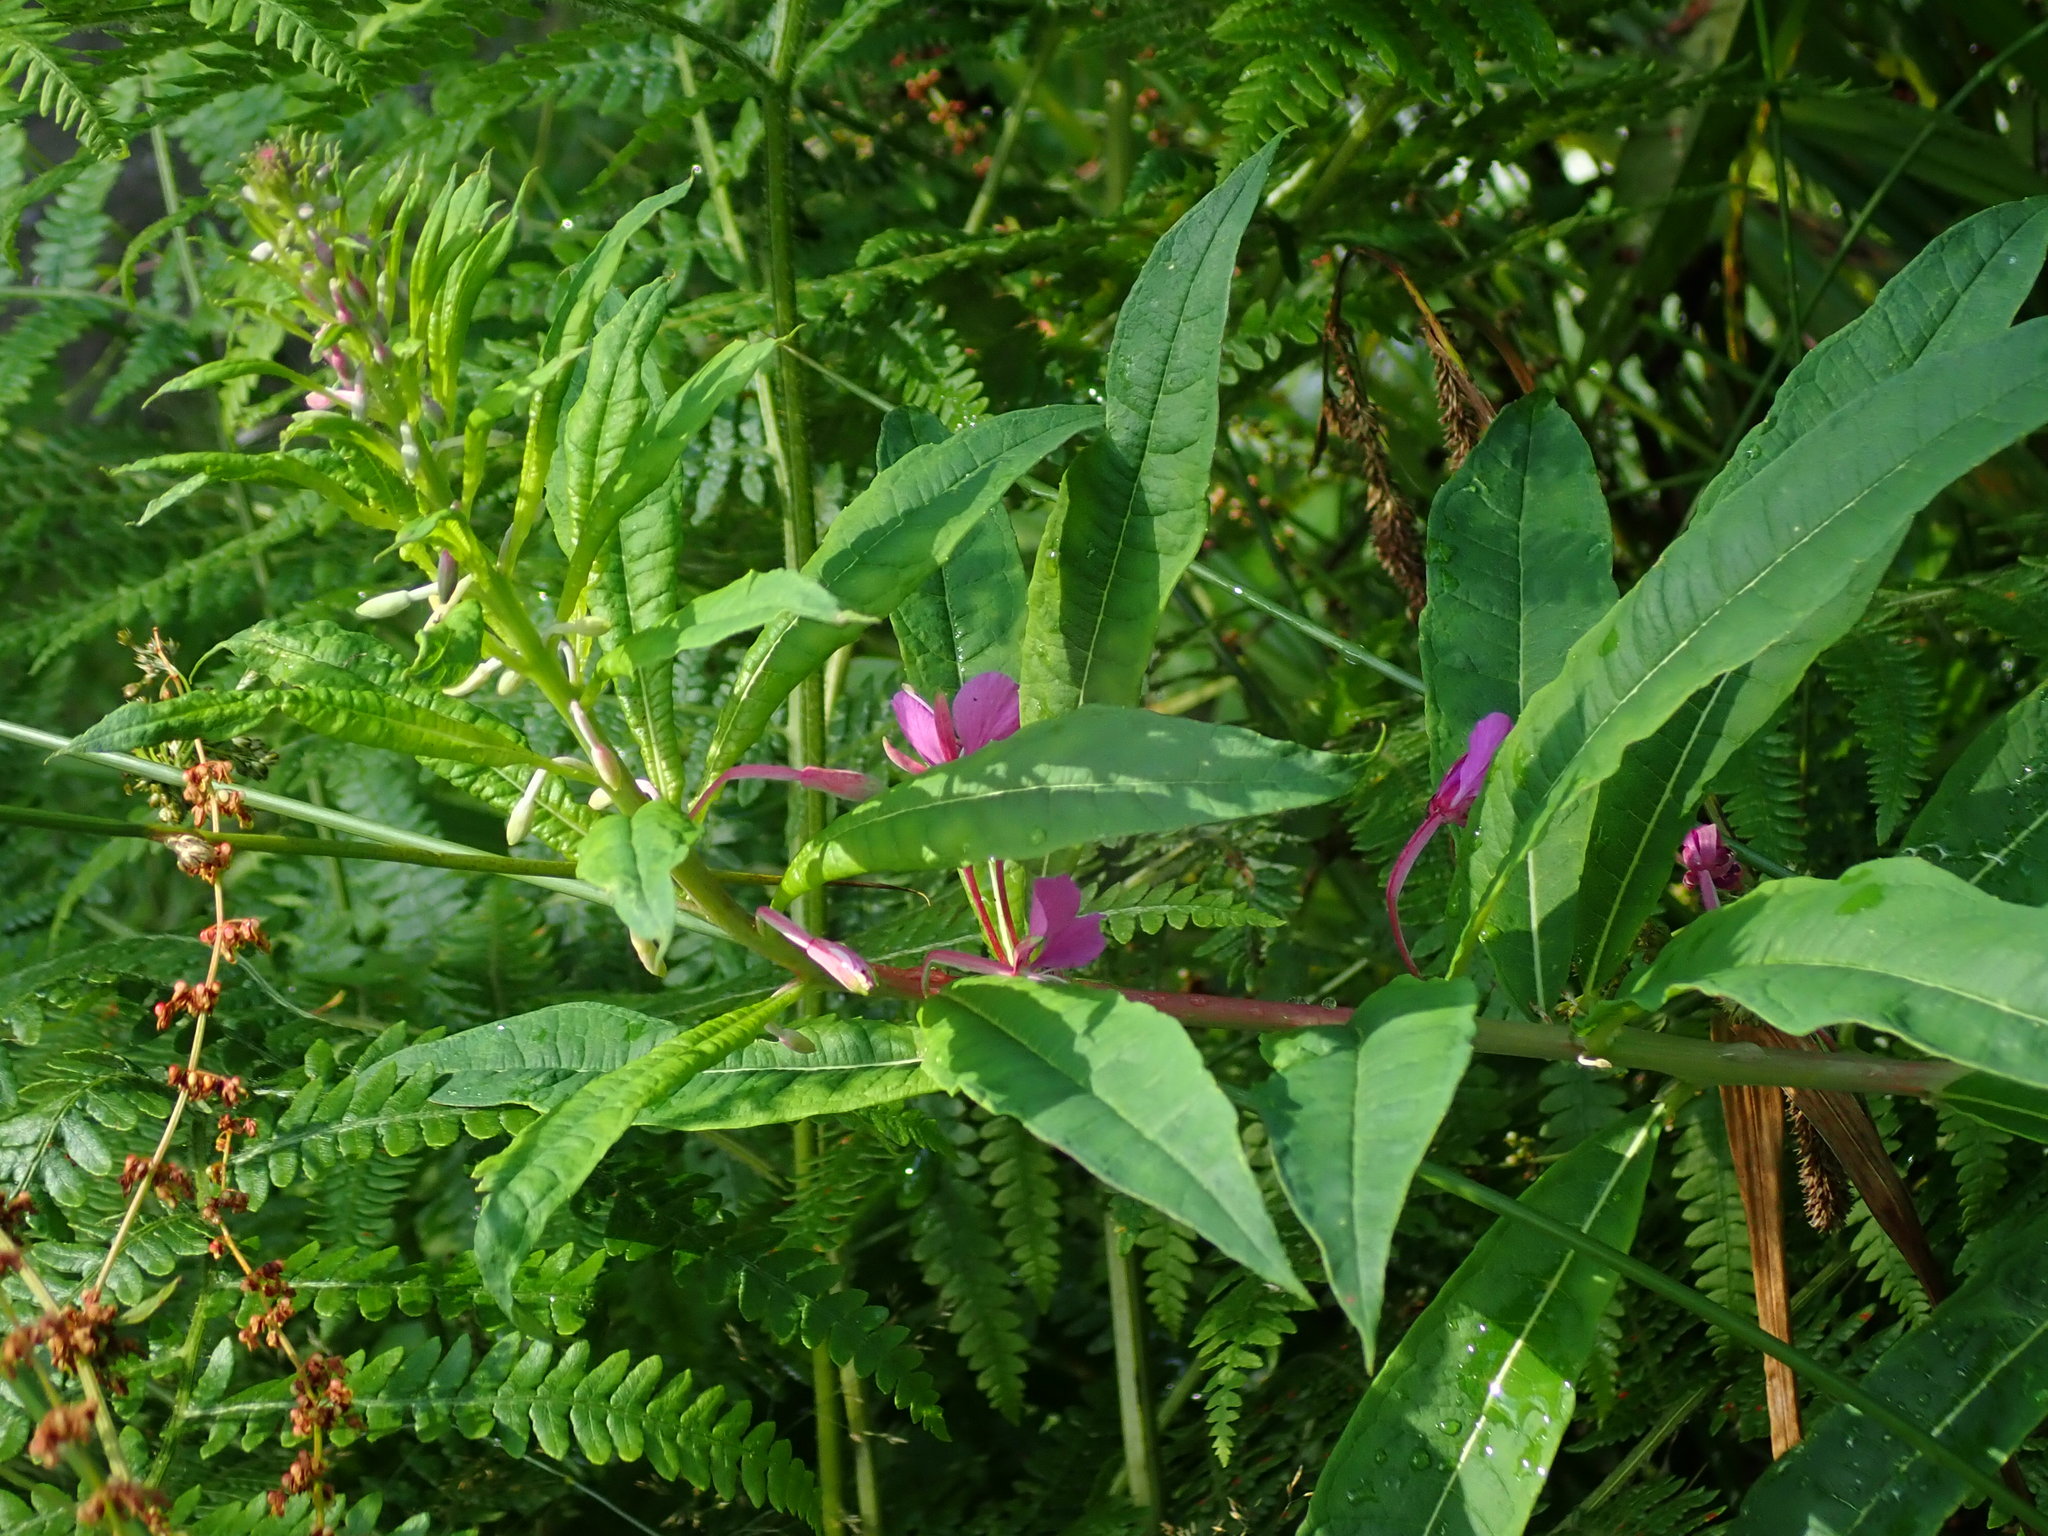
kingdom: Plantae
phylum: Tracheophyta
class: Magnoliopsida
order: Myrtales
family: Onagraceae
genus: Chamaenerion
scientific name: Chamaenerion angustifolium
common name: Fireweed
